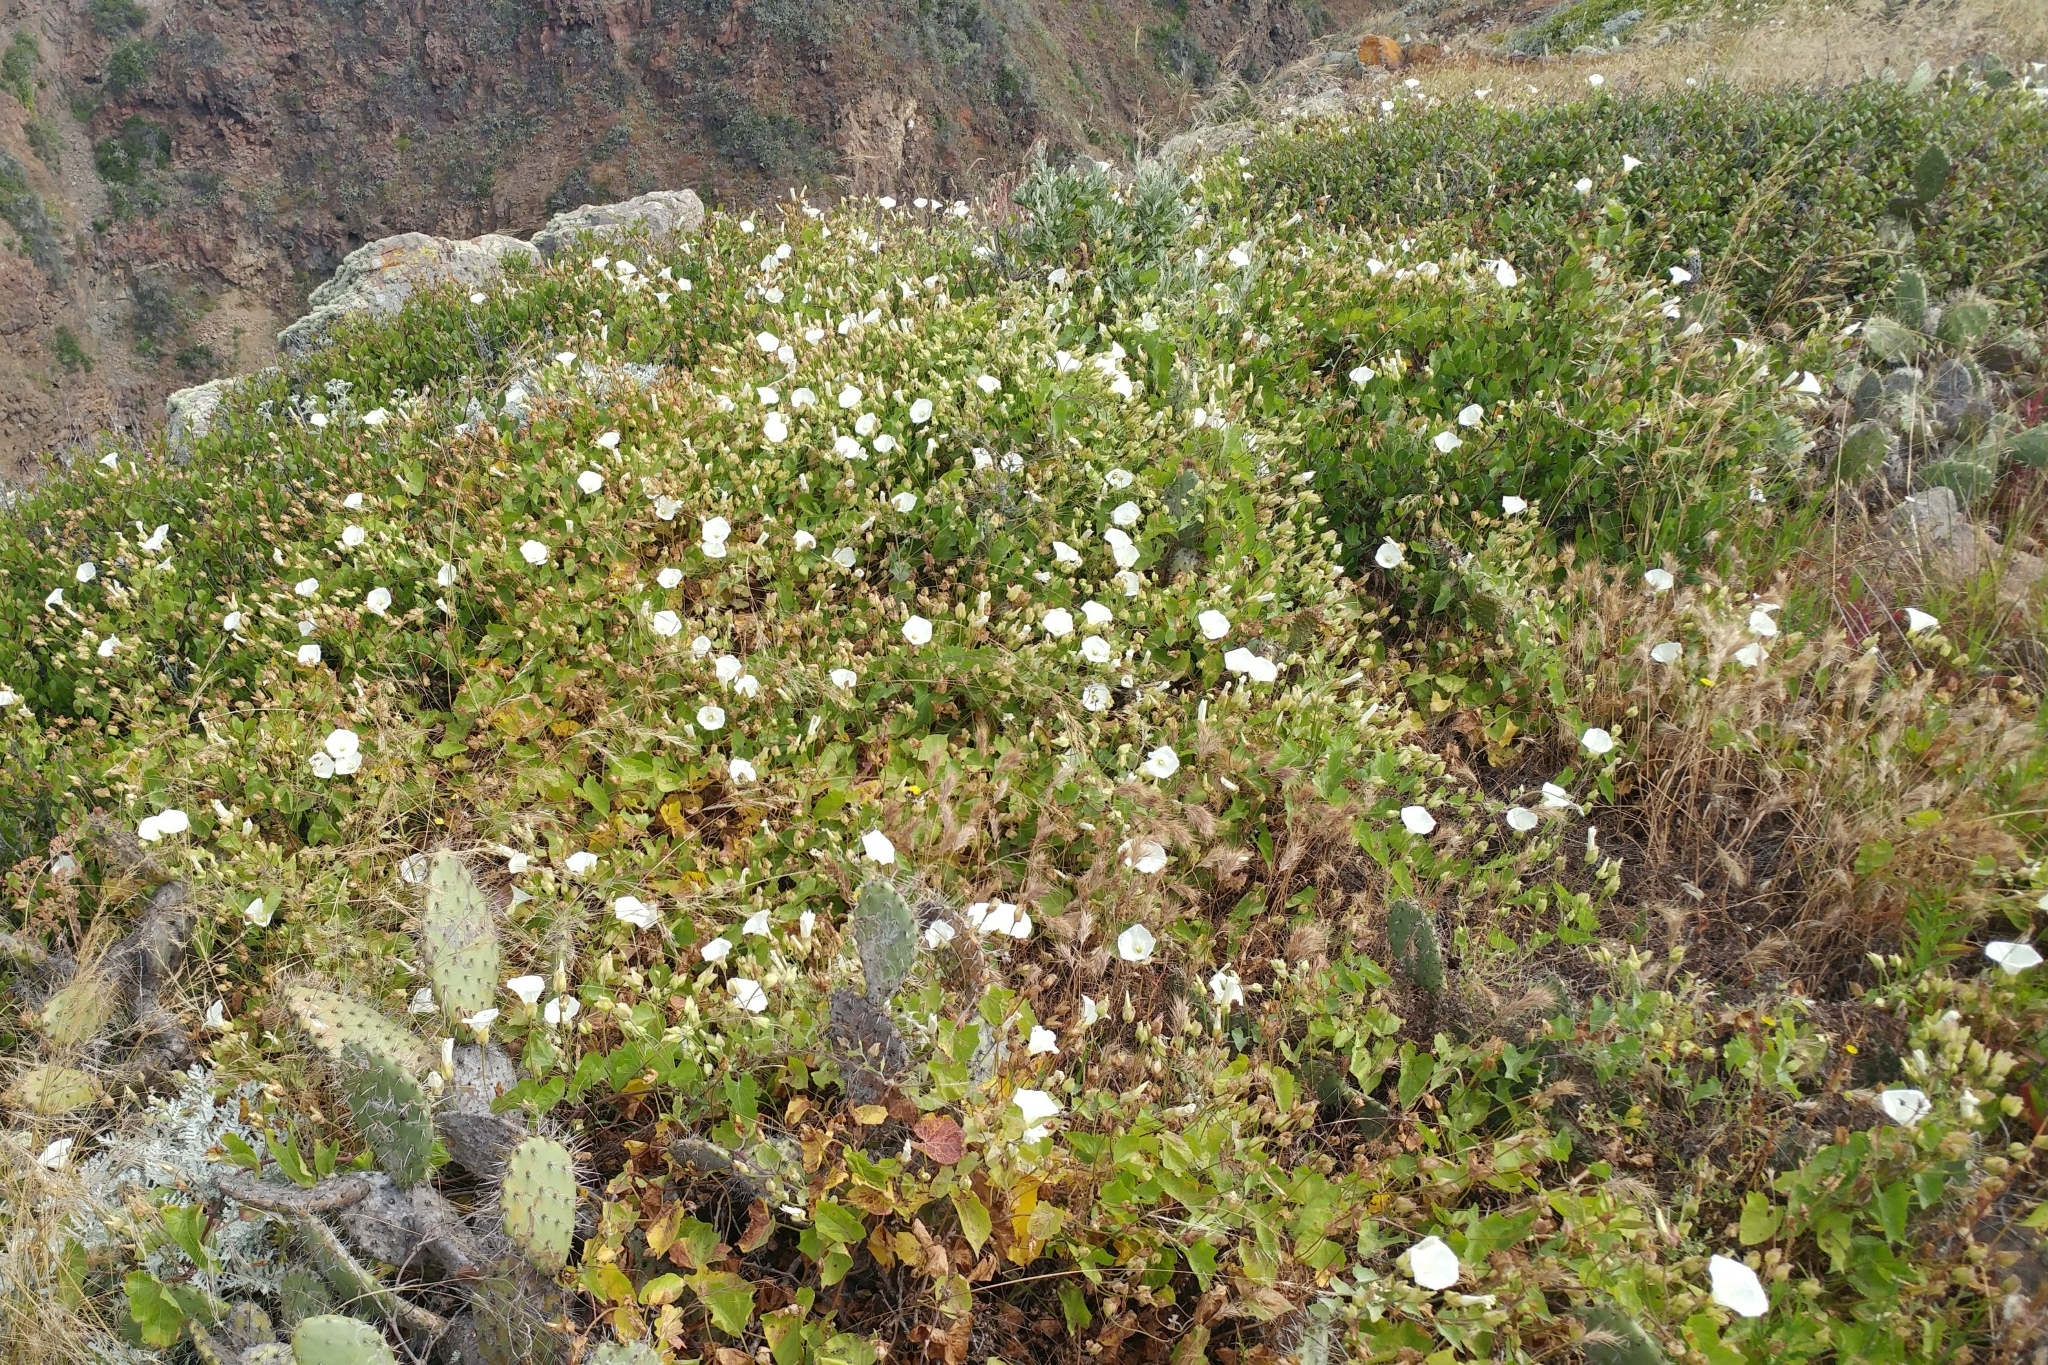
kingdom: Plantae
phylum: Tracheophyta
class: Magnoliopsida
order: Solanales
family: Convolvulaceae
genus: Calystegia
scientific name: Calystegia macrostegia
